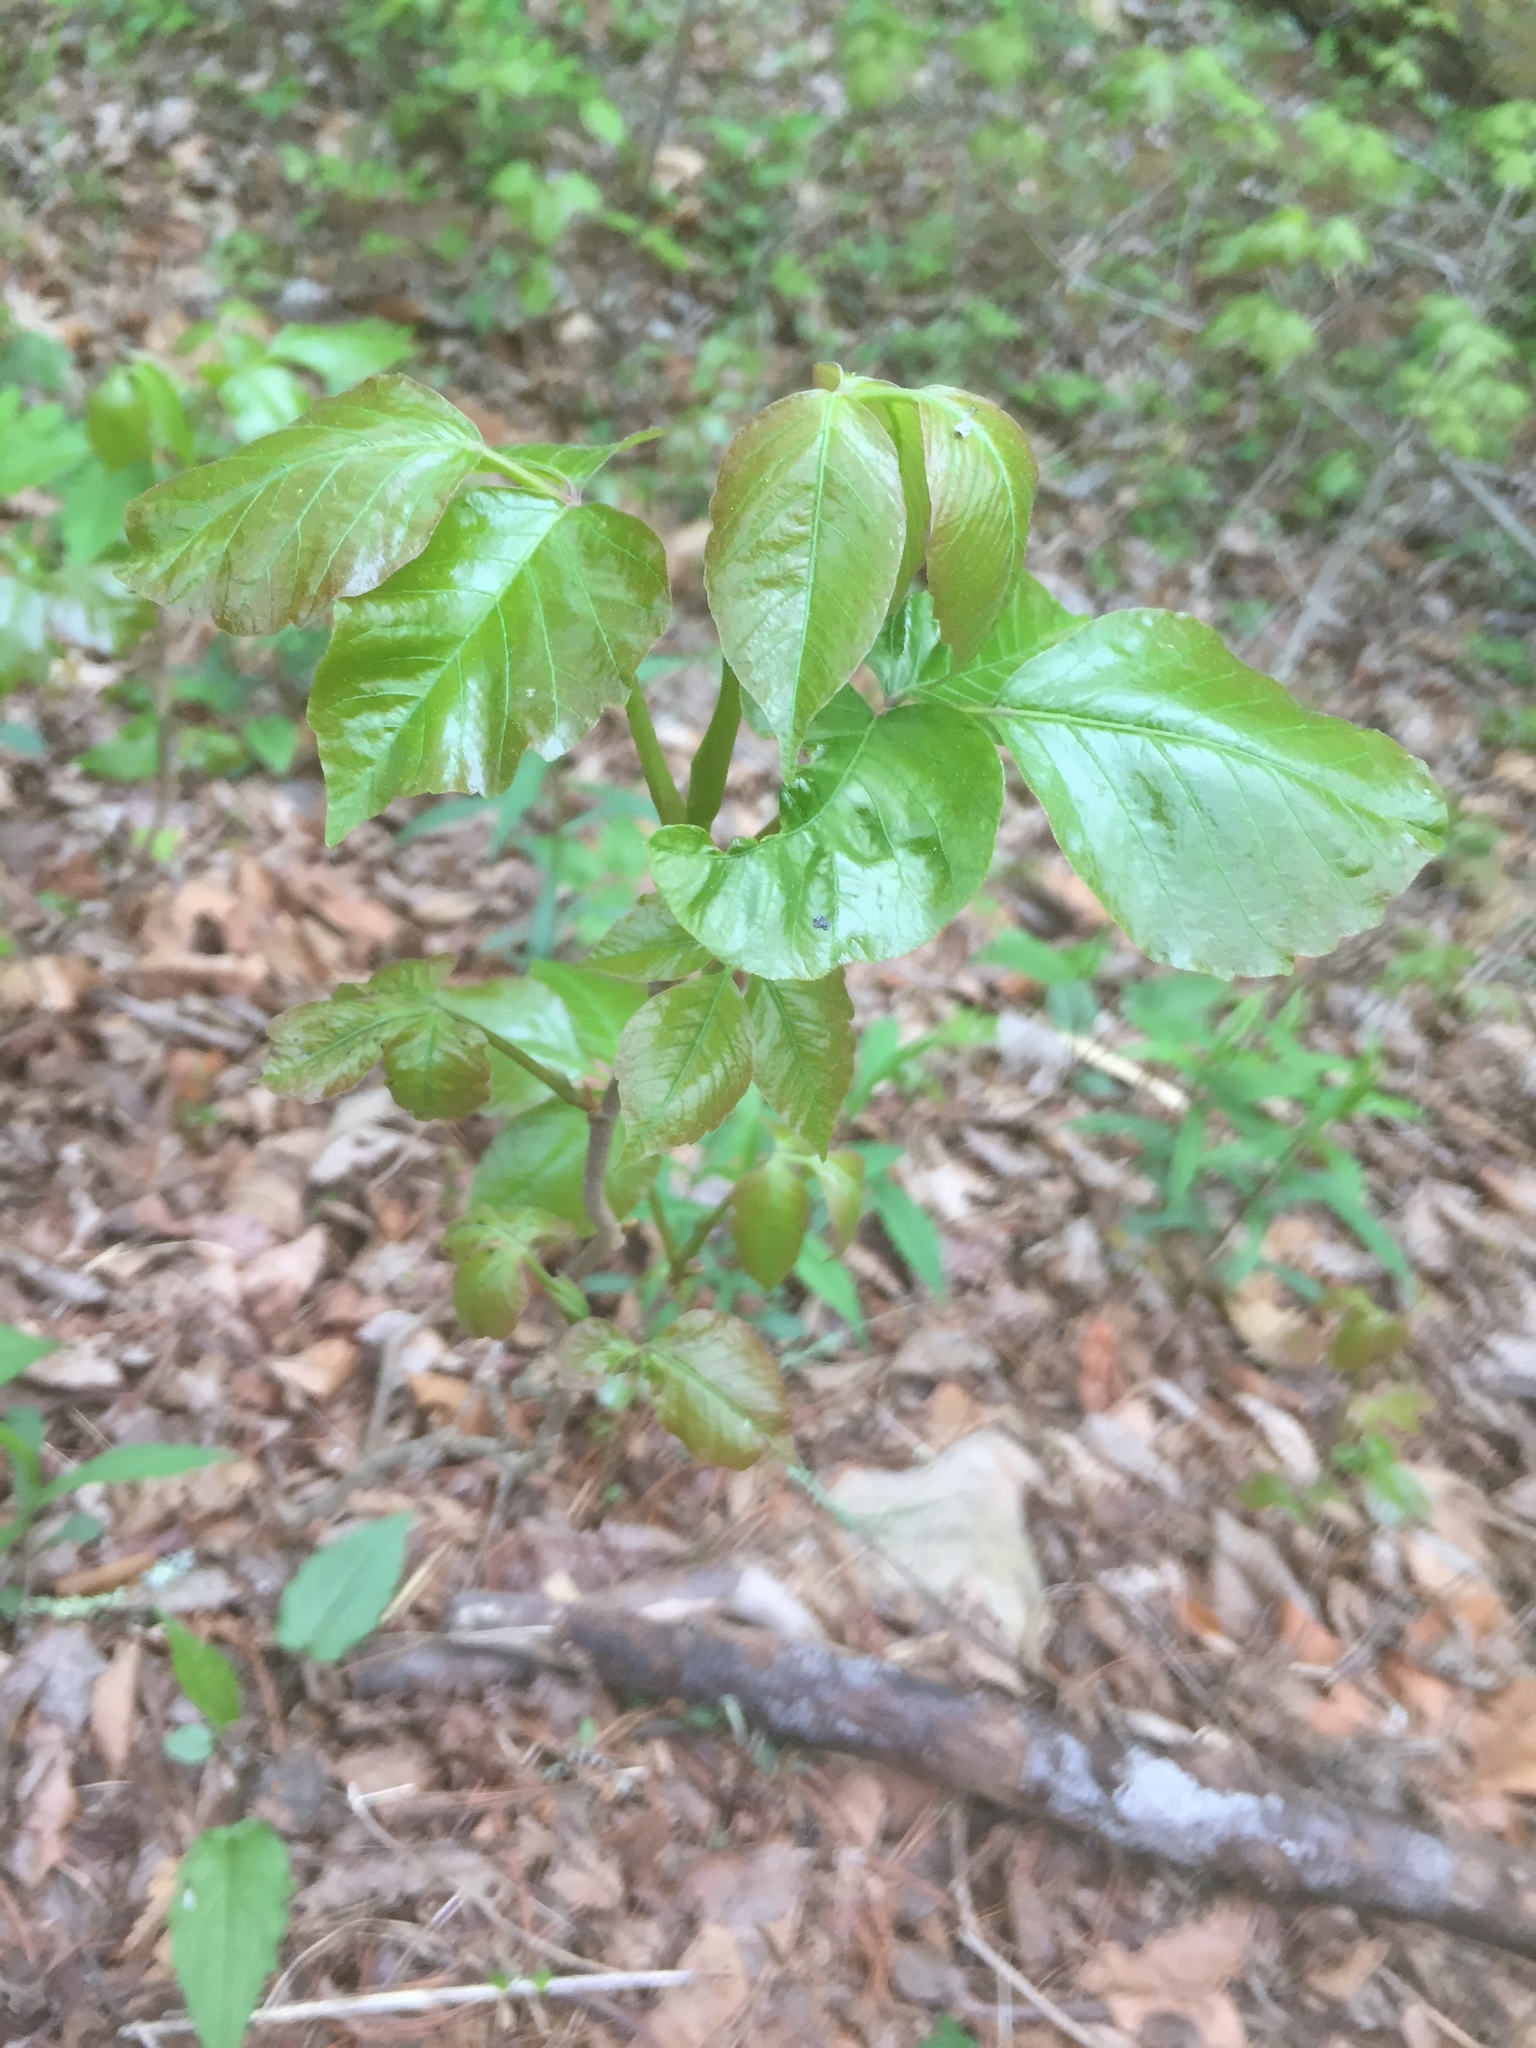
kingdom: Plantae
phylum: Tracheophyta
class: Magnoliopsida
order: Sapindales
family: Anacardiaceae
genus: Toxicodendron
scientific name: Toxicodendron radicans
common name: Poison ivy
